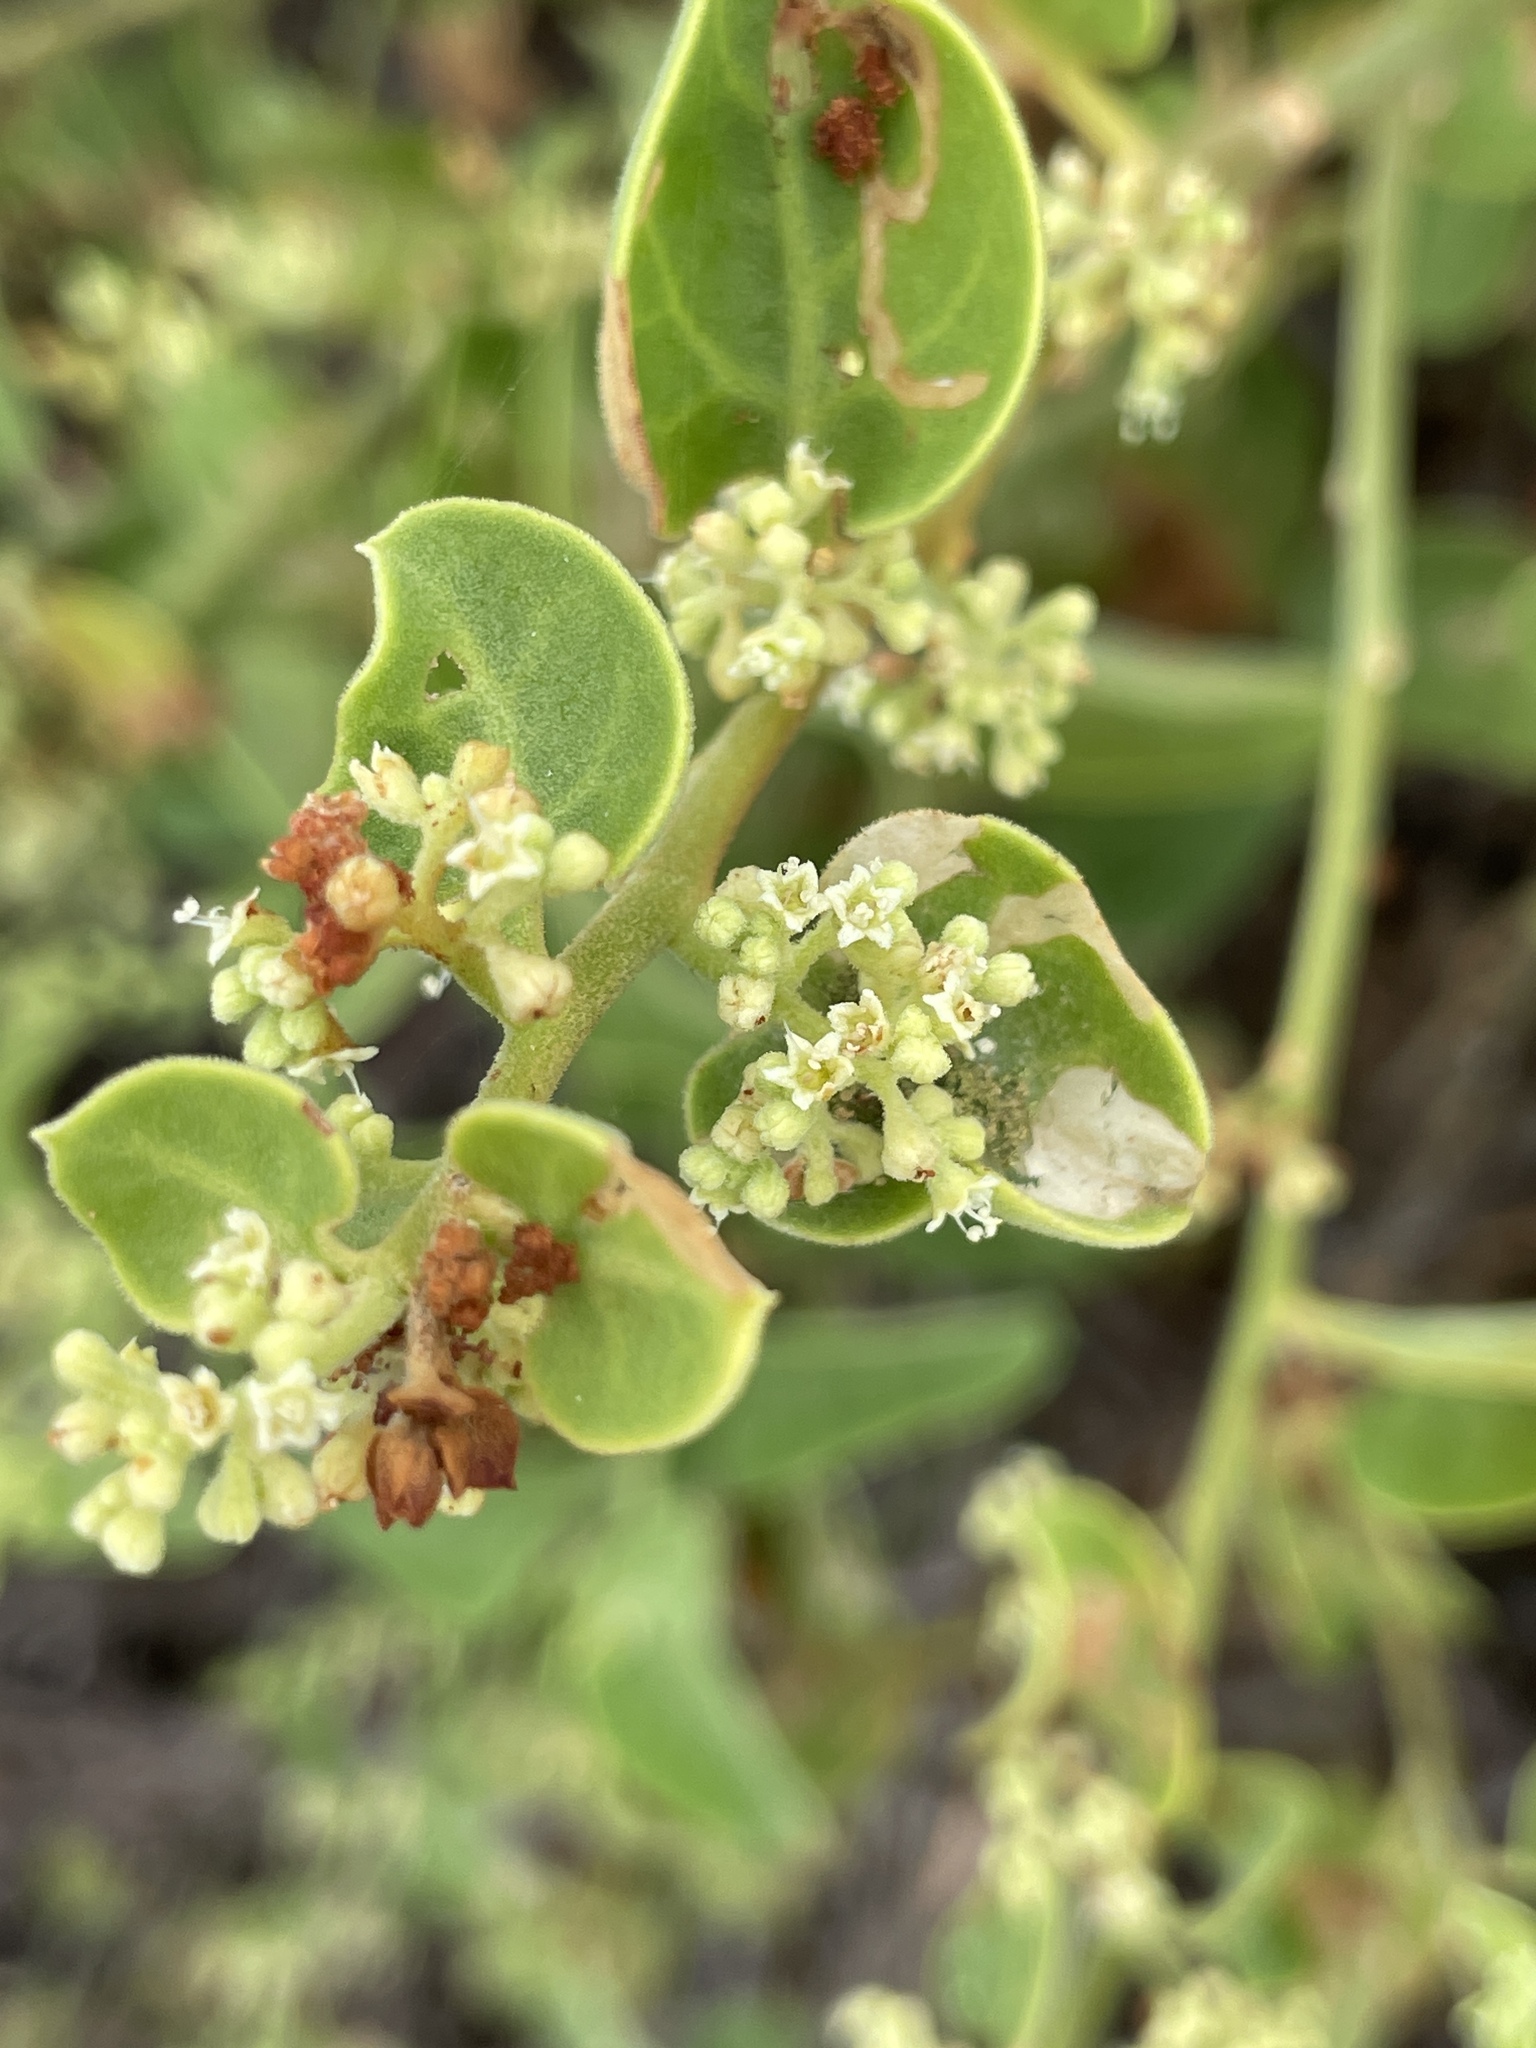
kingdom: Plantae
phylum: Tracheophyta
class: Magnoliopsida
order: Caryophyllales
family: Nyctaginaceae
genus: Cryptocarpus
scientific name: Cryptocarpus pyriformis
